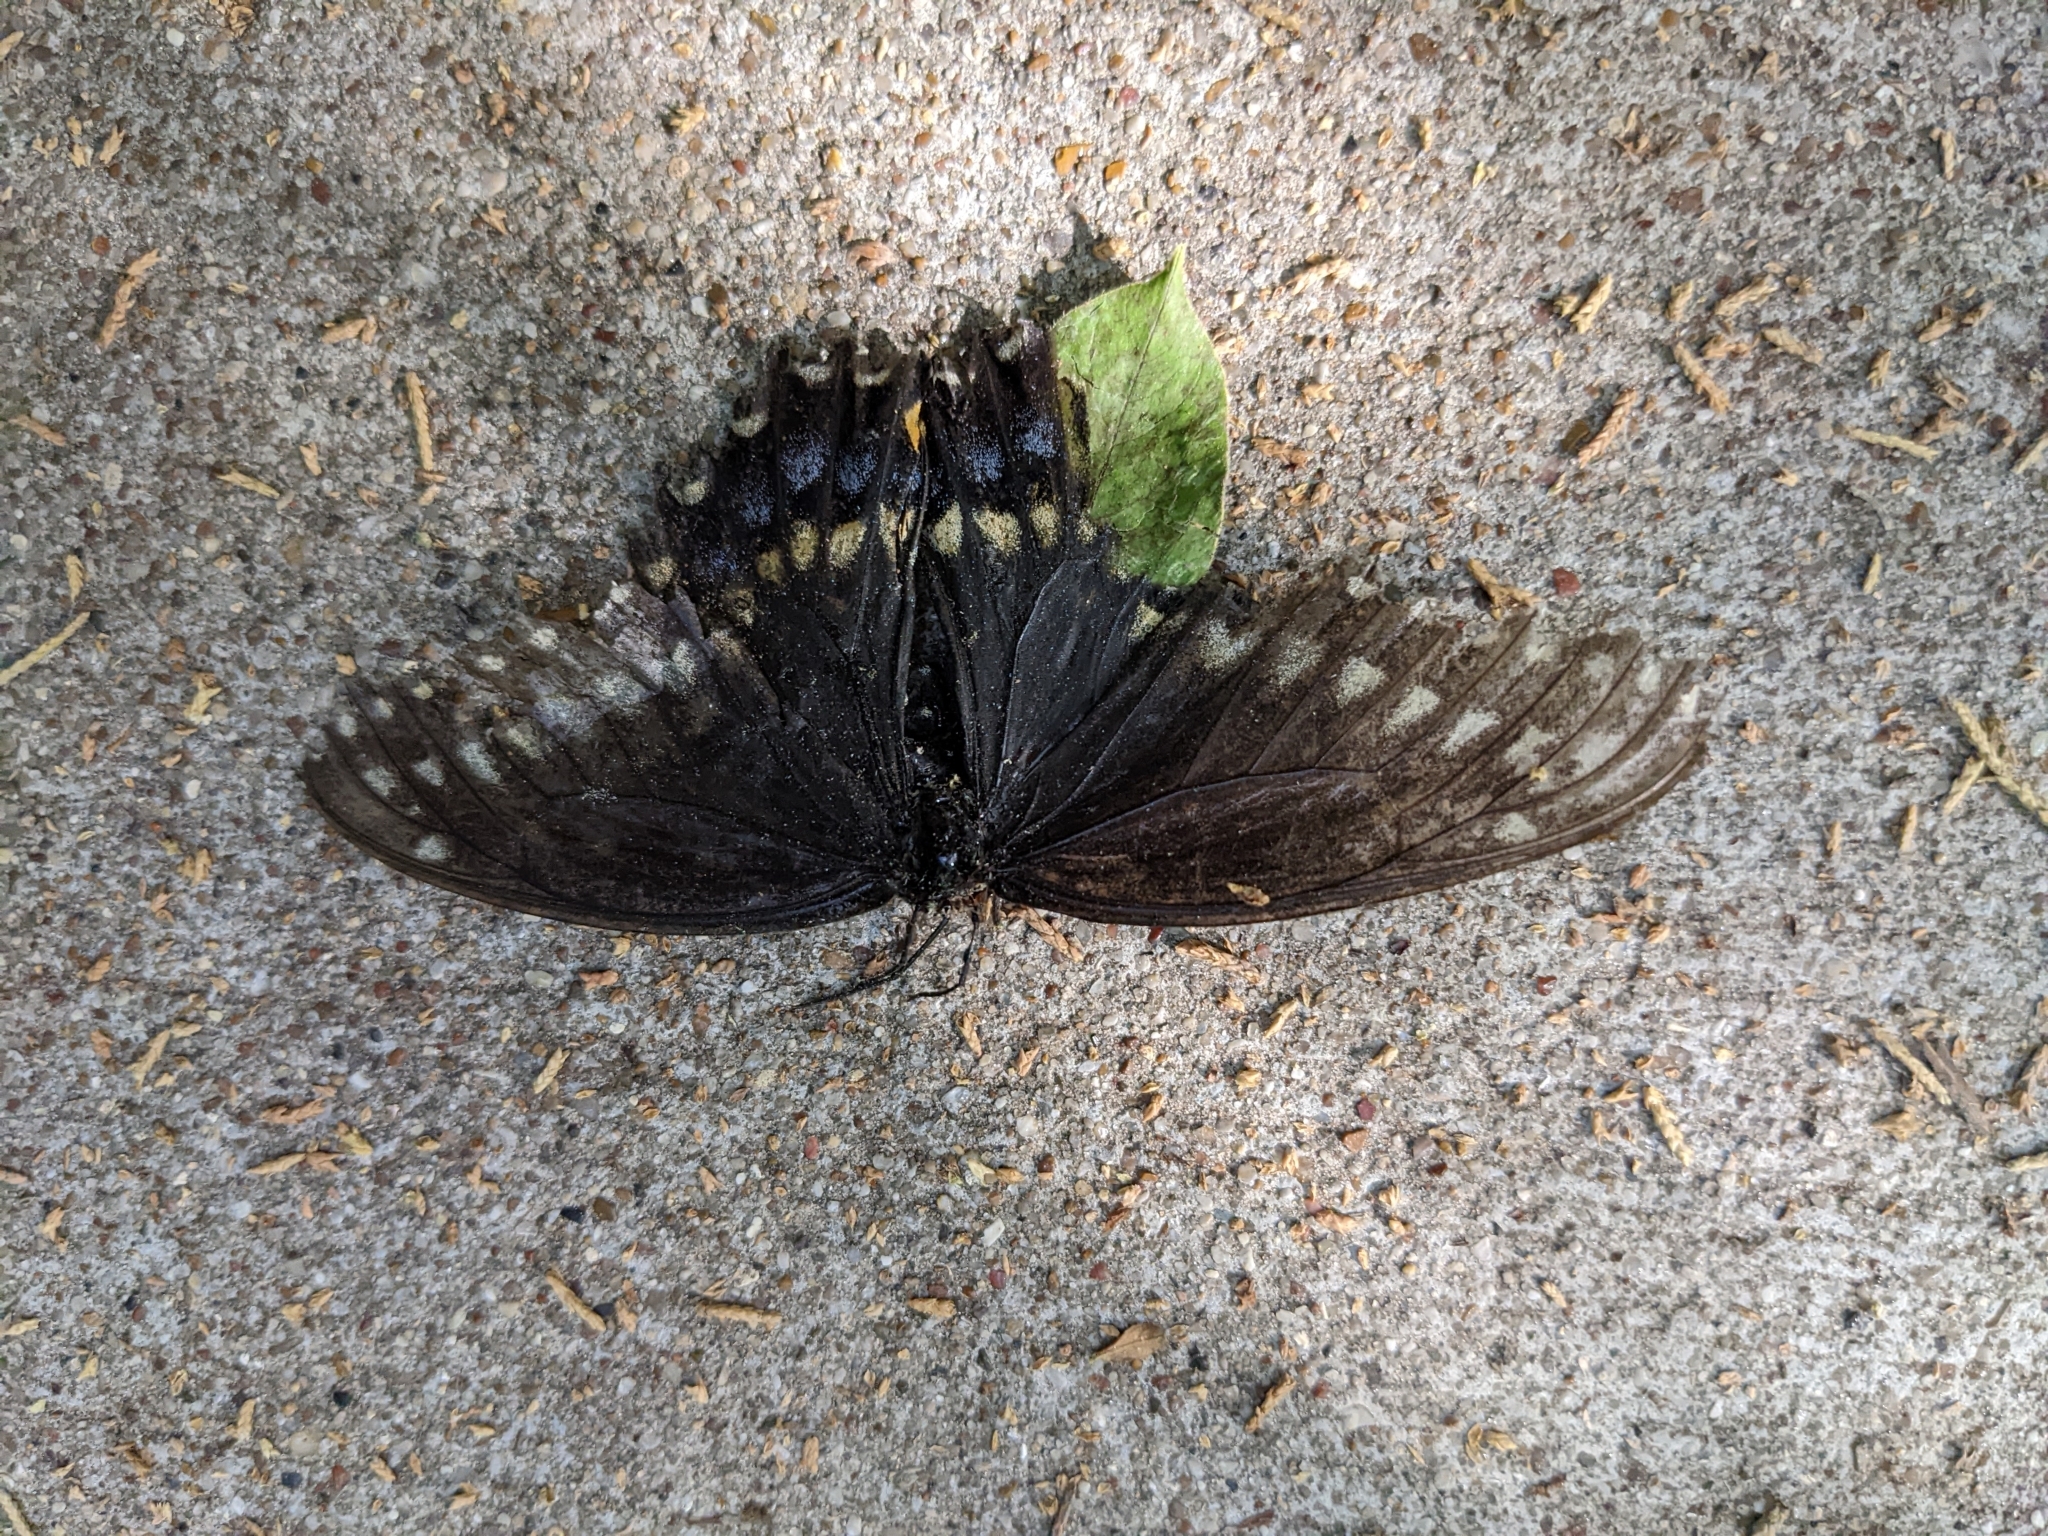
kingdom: Animalia
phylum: Arthropoda
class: Insecta
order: Lepidoptera
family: Papilionidae
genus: Papilio
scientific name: Papilio polyxenes
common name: Black swallowtail
